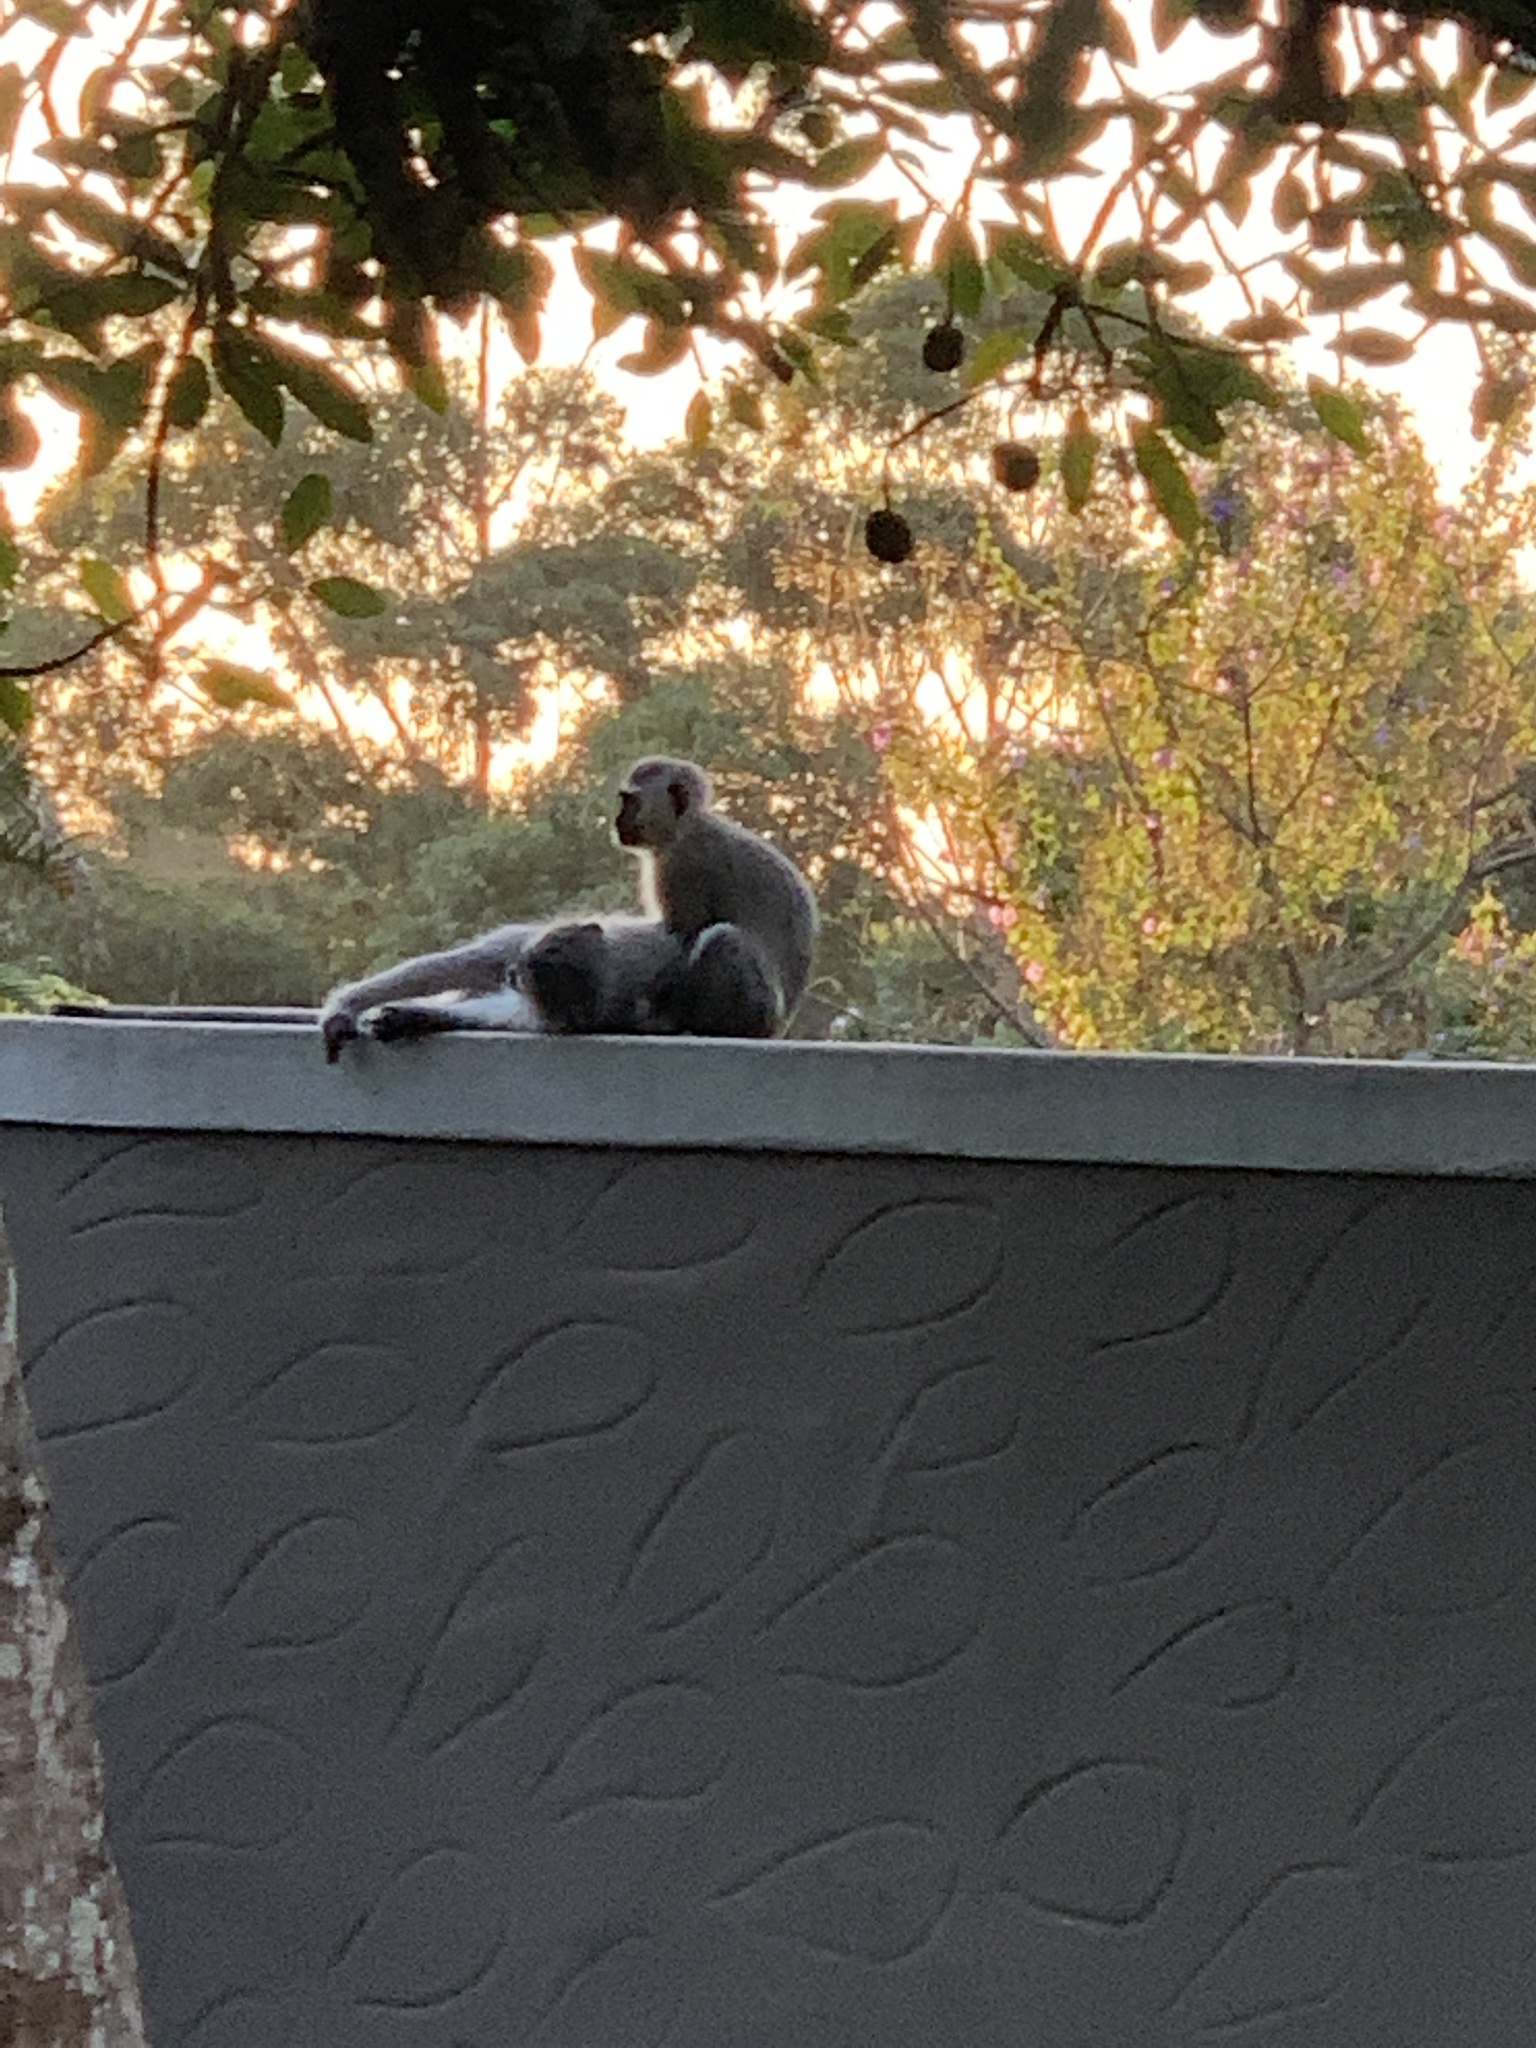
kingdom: Animalia
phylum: Chordata
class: Mammalia
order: Primates
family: Cercopithecidae
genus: Chlorocebus
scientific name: Chlorocebus pygerythrus
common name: Vervet monkey
